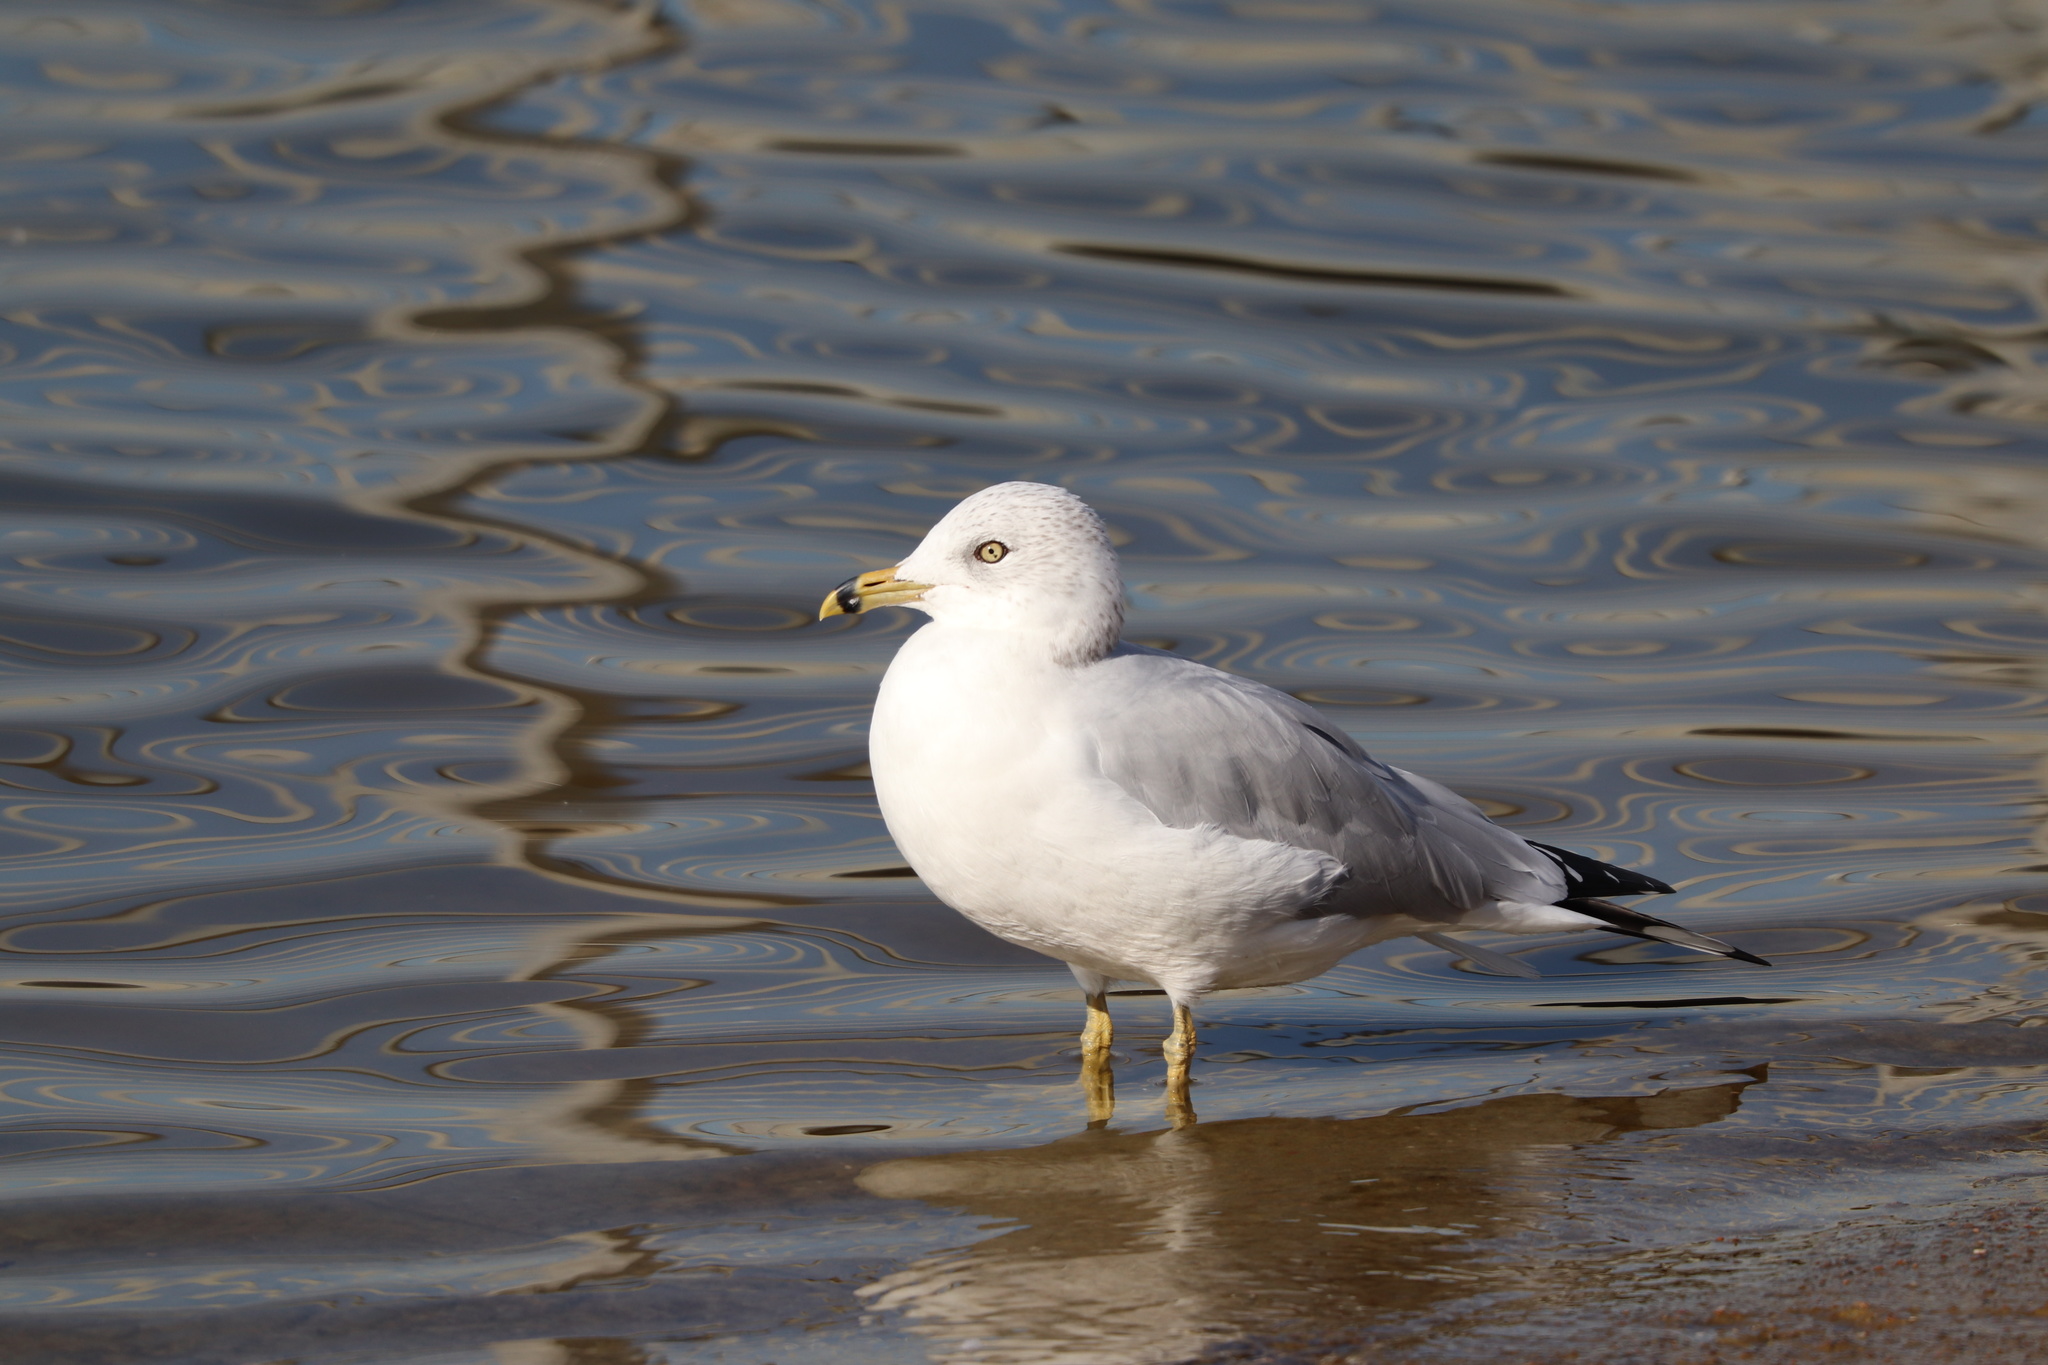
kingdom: Animalia
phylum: Chordata
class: Aves
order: Charadriiformes
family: Laridae
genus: Larus
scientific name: Larus delawarensis
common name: Ring-billed gull
